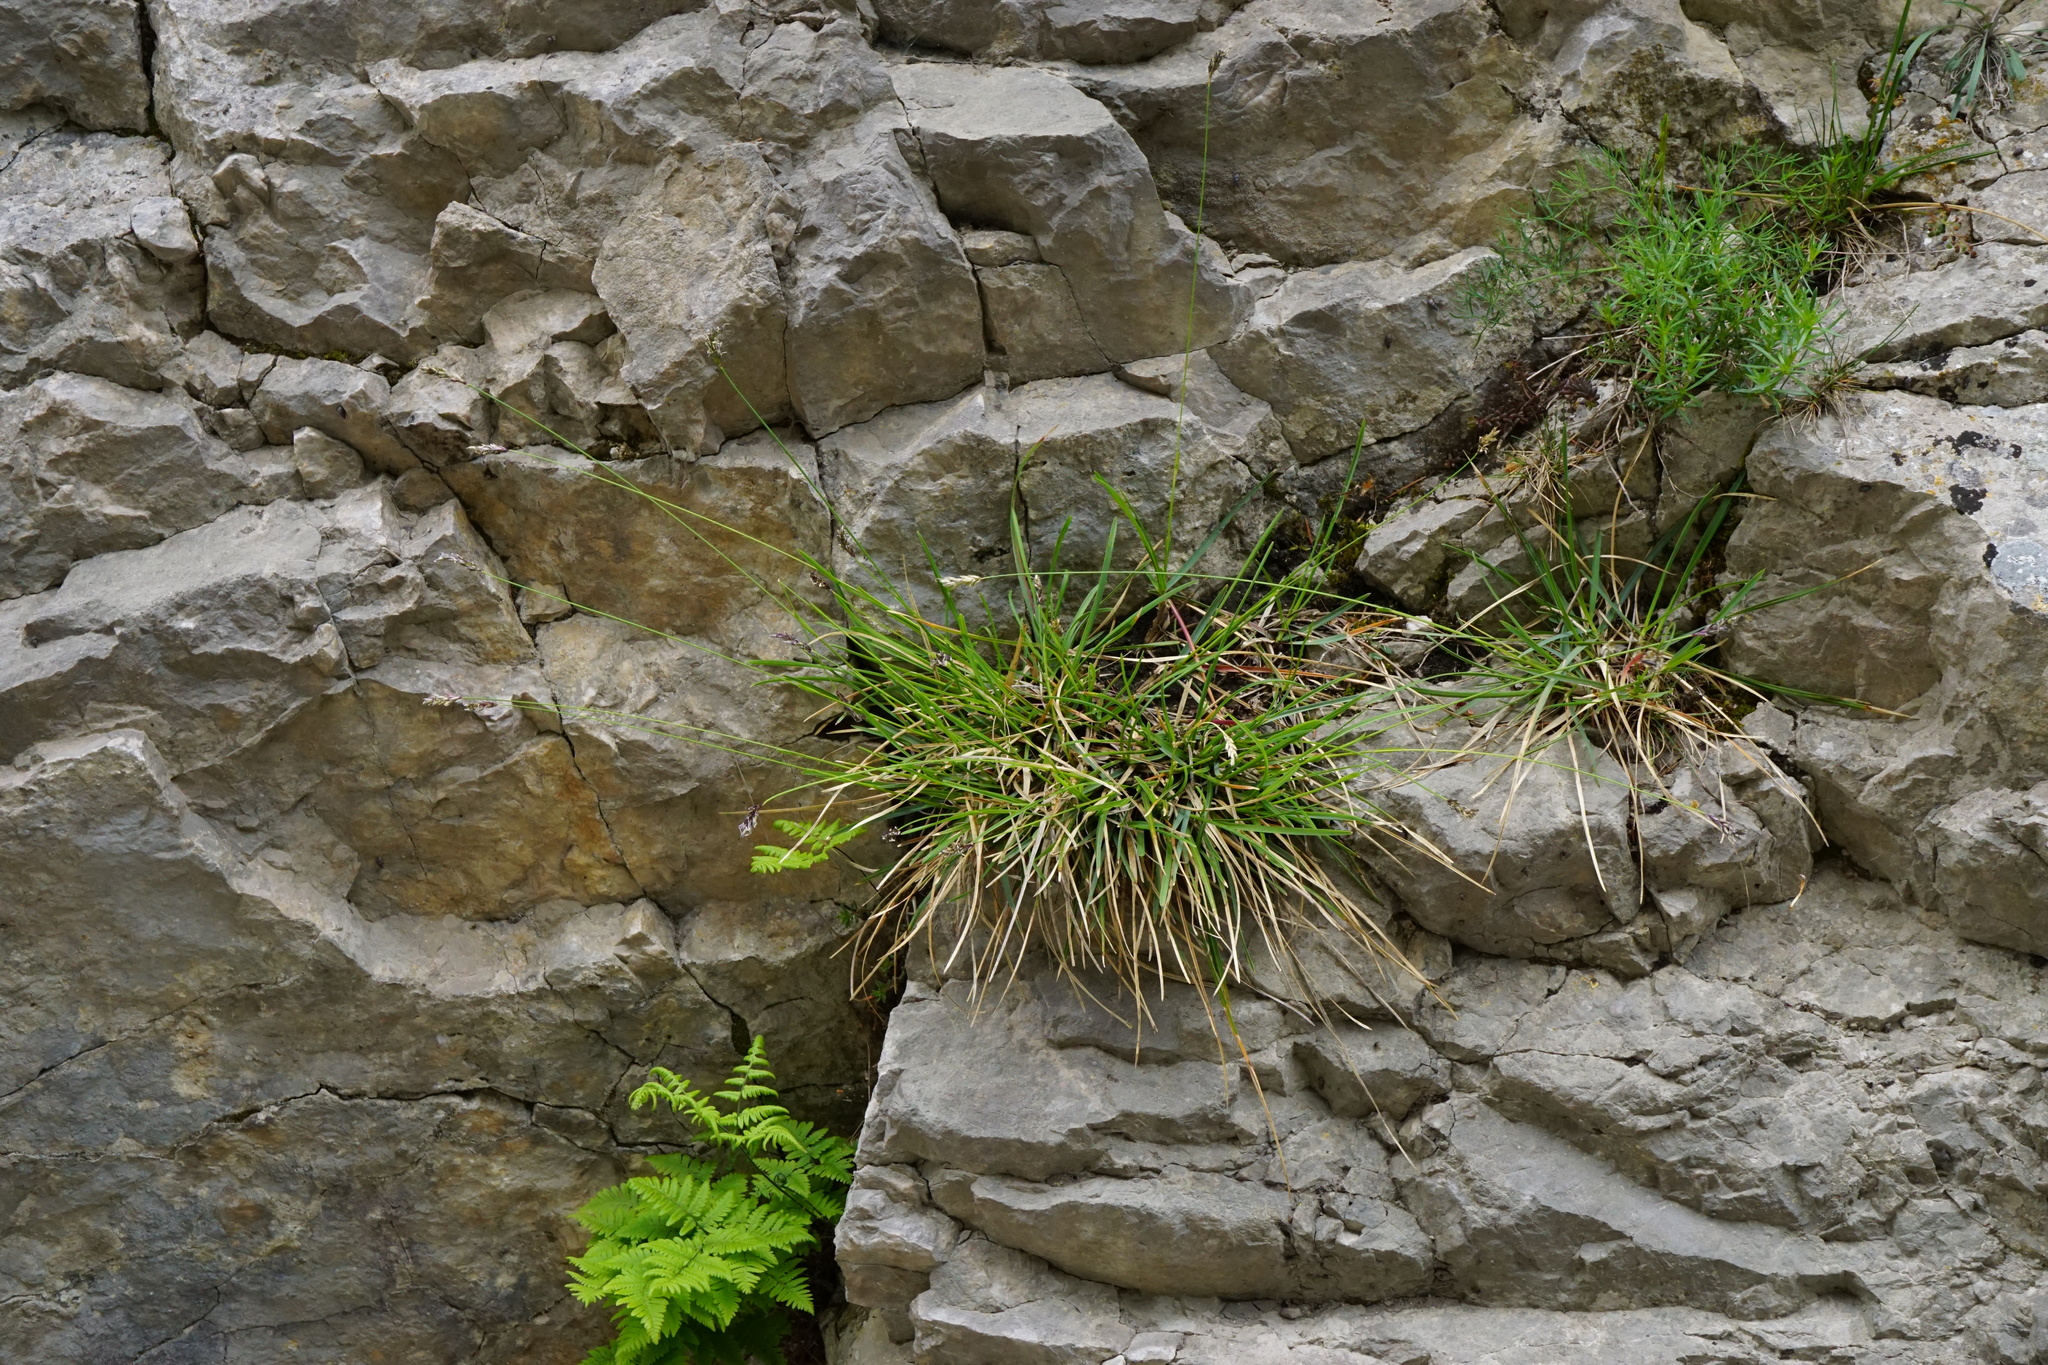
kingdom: Plantae
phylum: Tracheophyta
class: Liliopsida
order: Poales
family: Poaceae
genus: Sesleria
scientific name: Sesleria albicans
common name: Blue moor-grass
